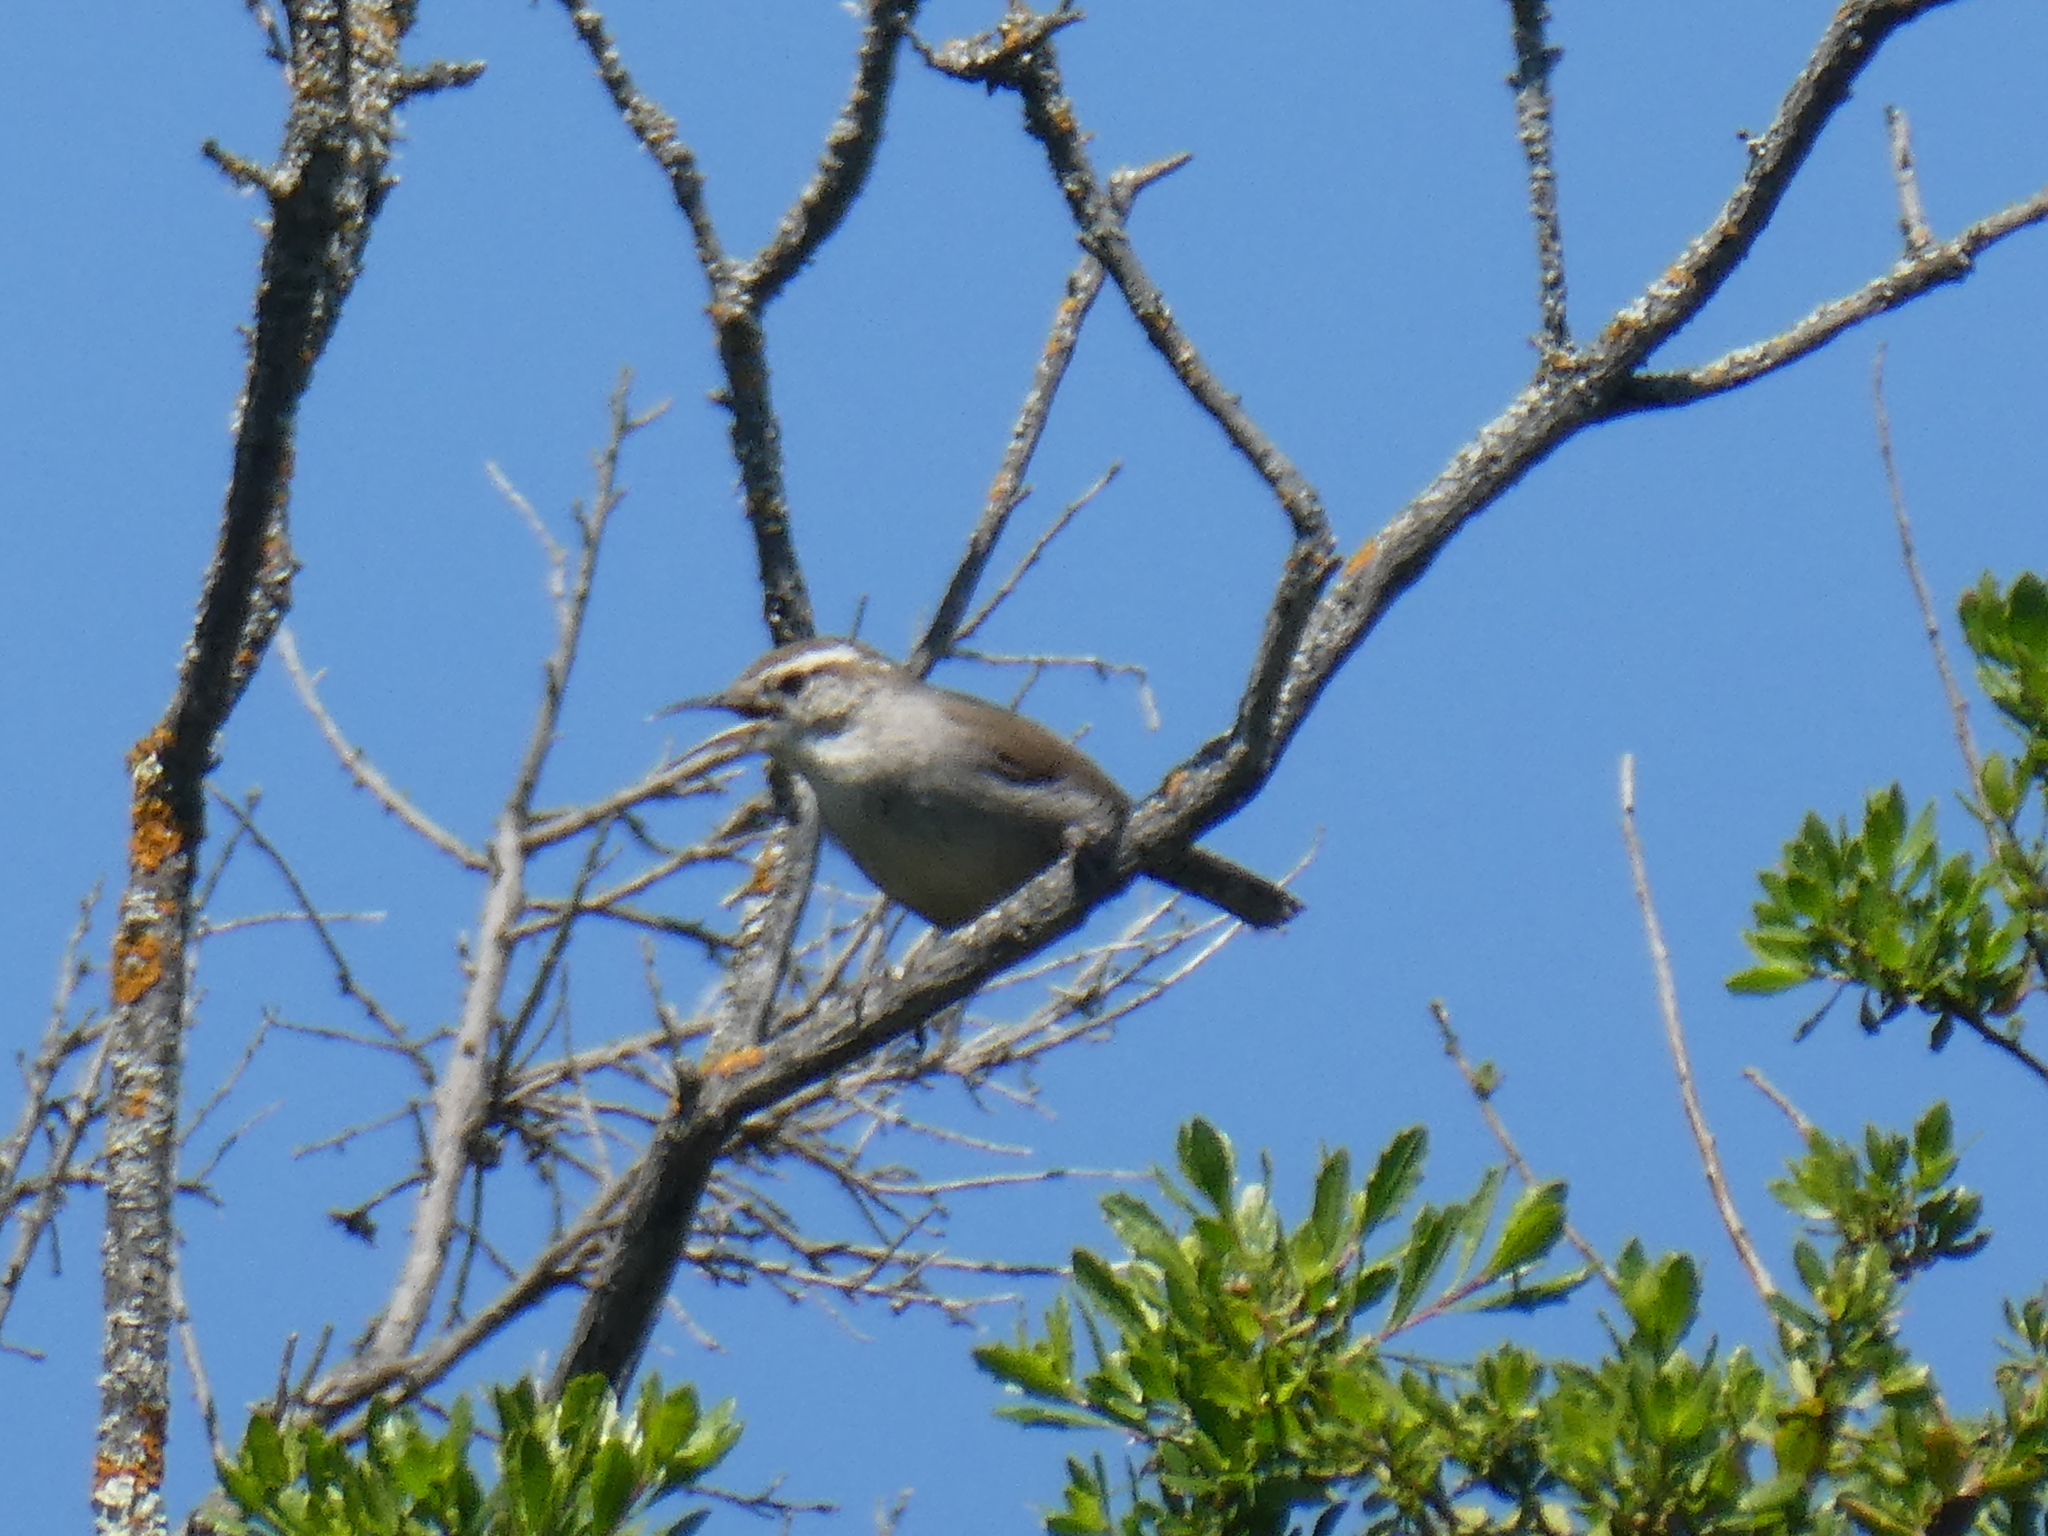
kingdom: Animalia
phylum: Chordata
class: Aves
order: Passeriformes
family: Troglodytidae
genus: Thryomanes
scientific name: Thryomanes bewickii
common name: Bewick's wren
